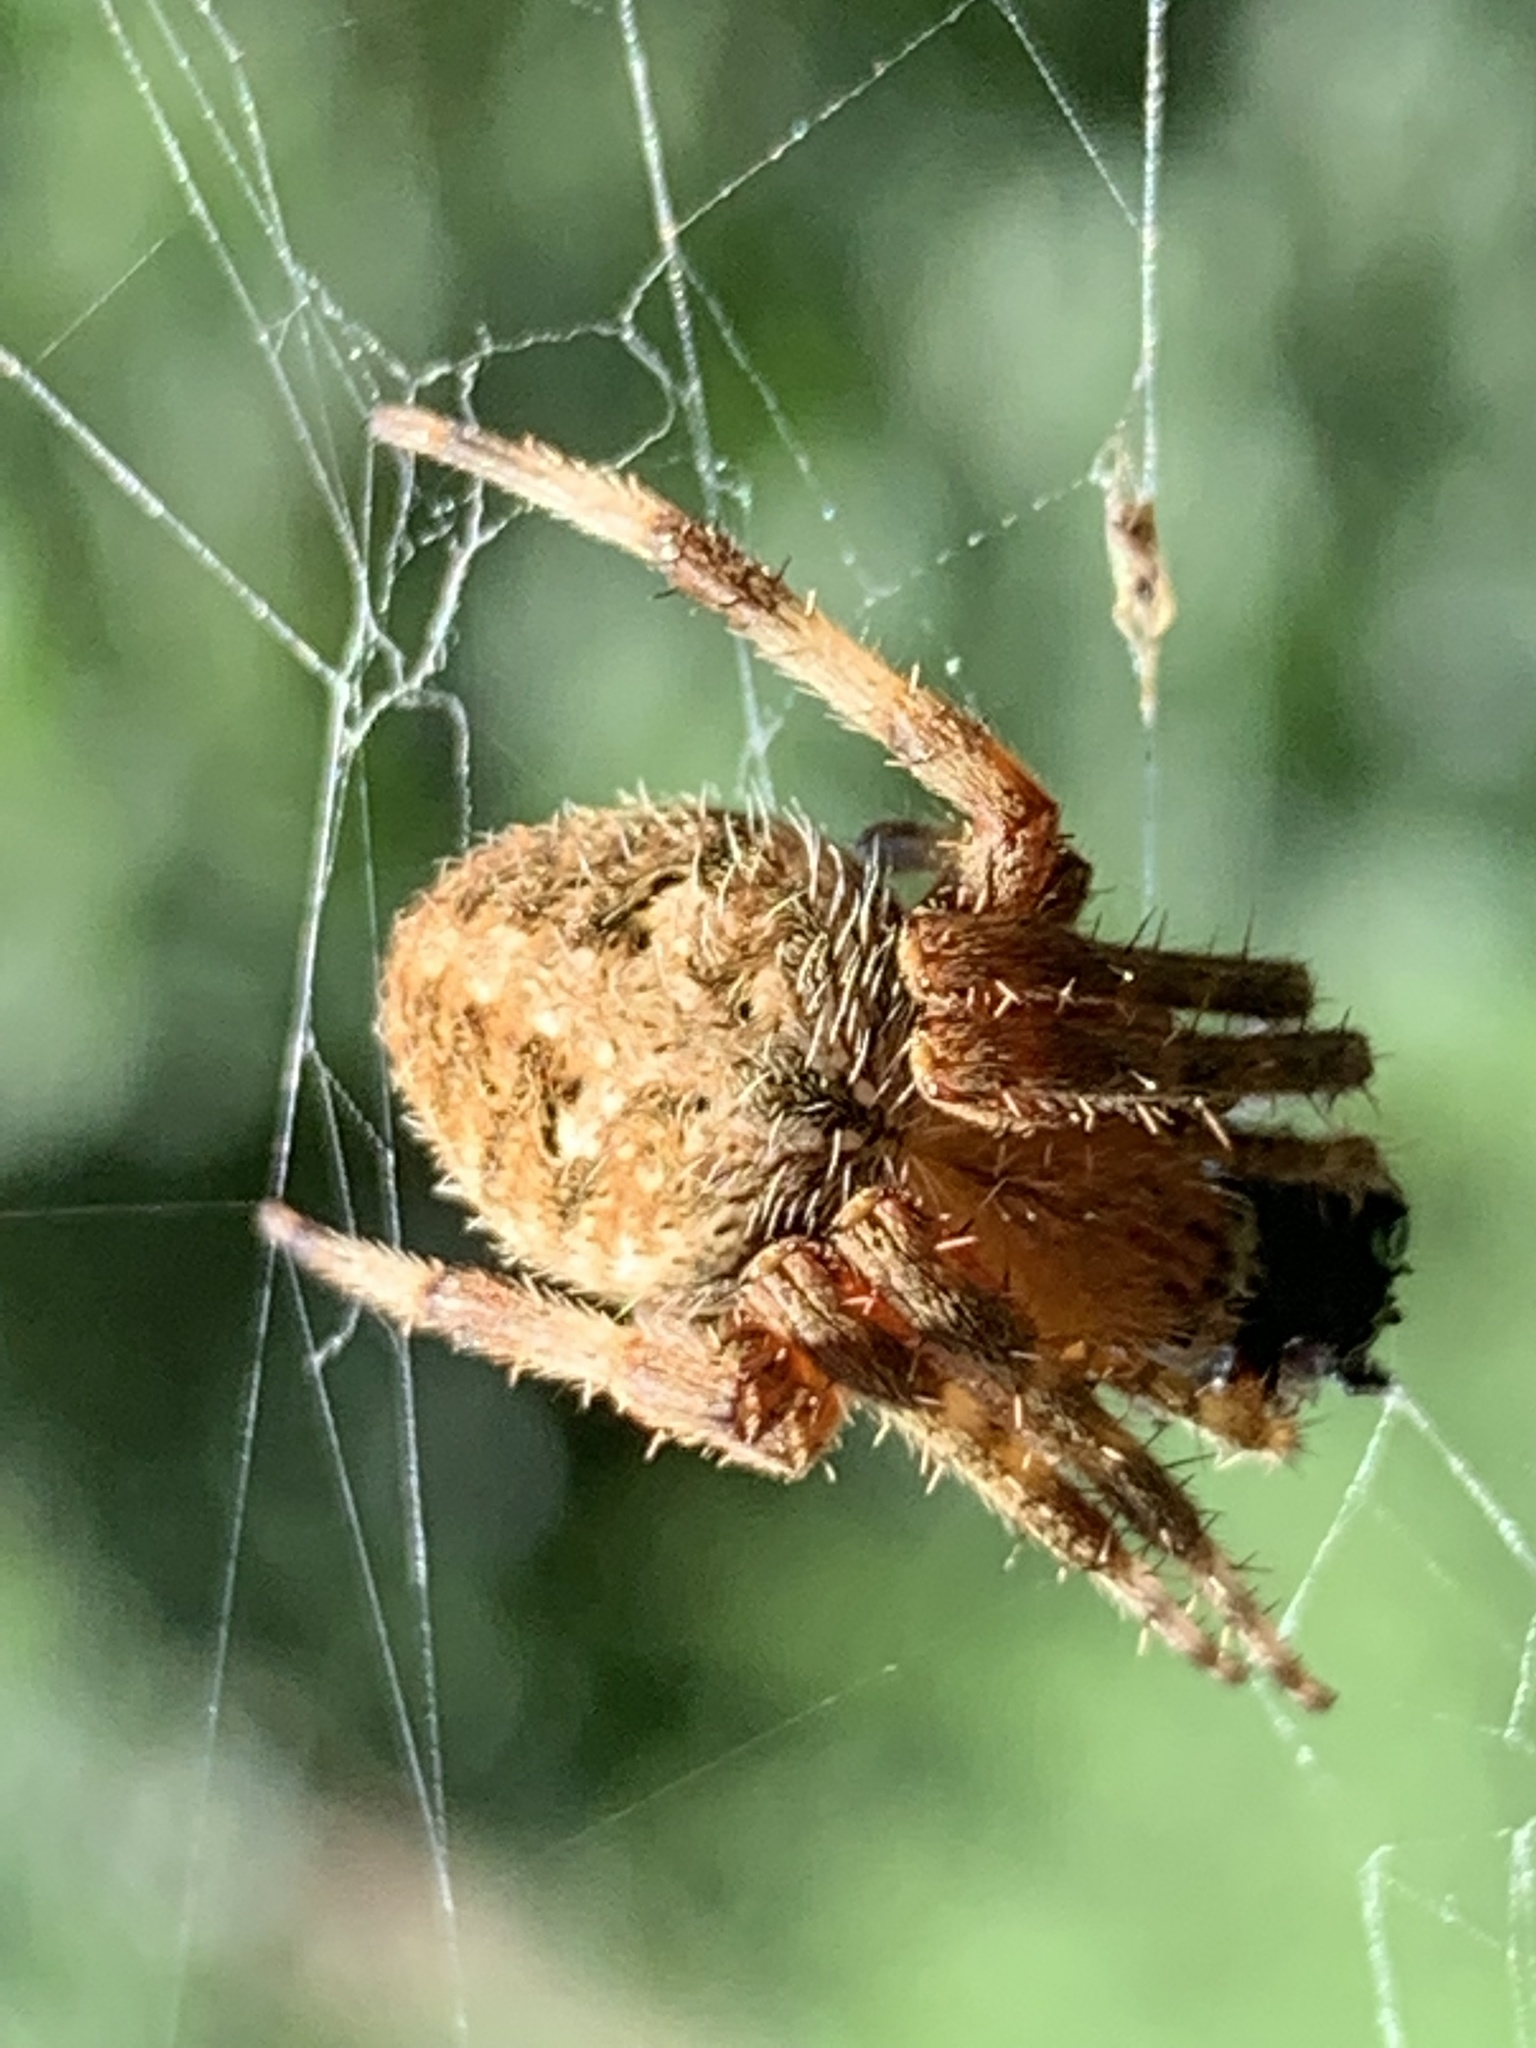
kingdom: Animalia
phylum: Arthropoda
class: Arachnida
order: Araneae
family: Araneidae
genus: Neoscona
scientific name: Neoscona crucifera
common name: Spotted orbweaver
